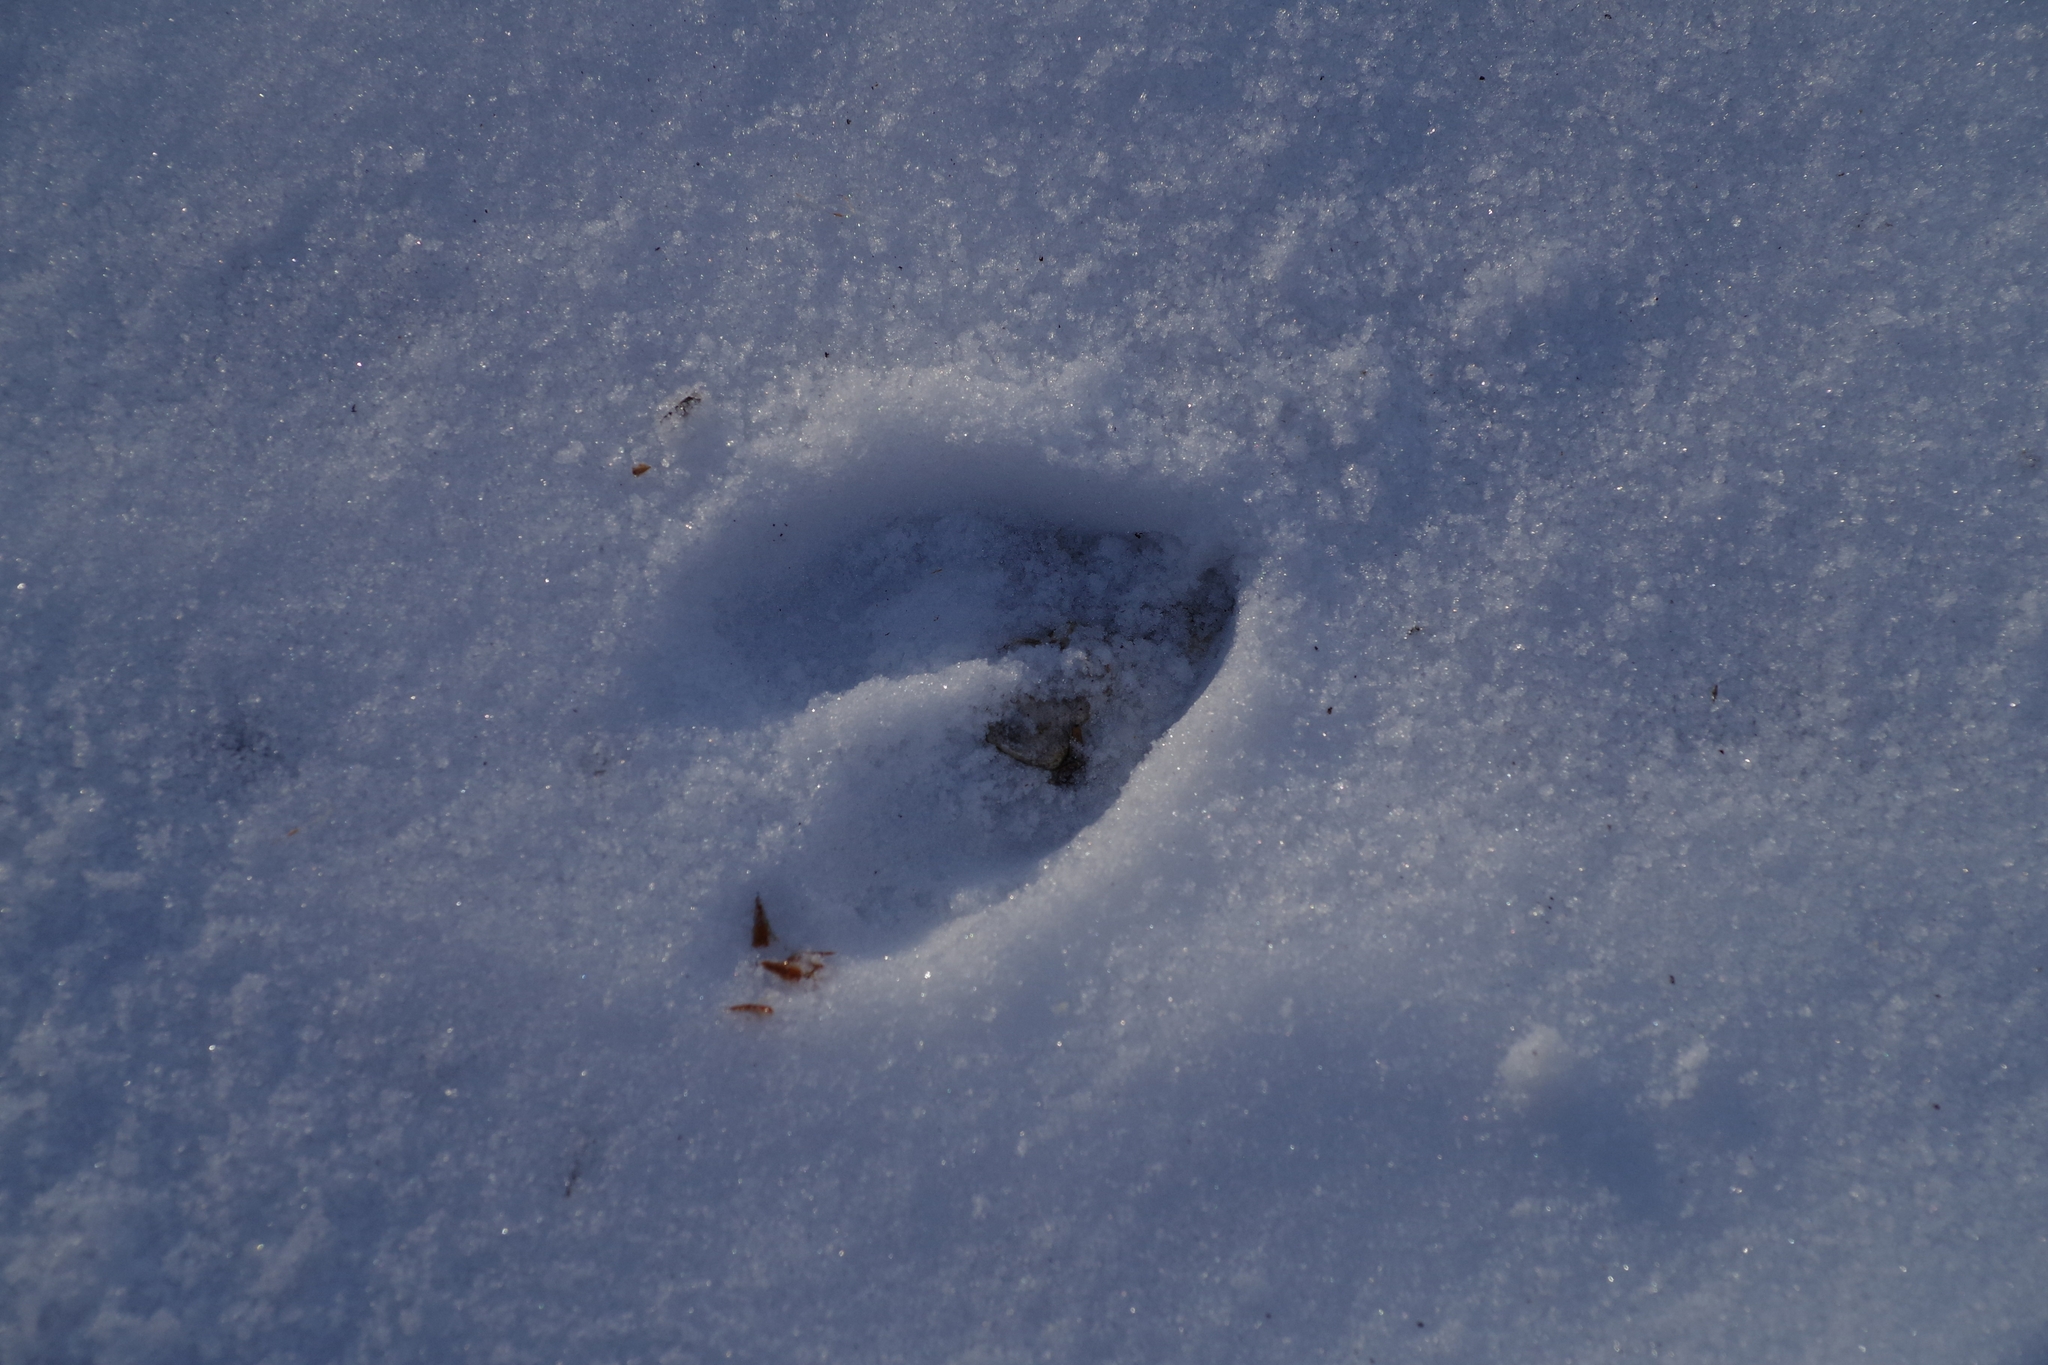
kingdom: Animalia
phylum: Chordata
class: Mammalia
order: Artiodactyla
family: Cervidae
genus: Odocoileus
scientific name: Odocoileus virginianus
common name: White-tailed deer
